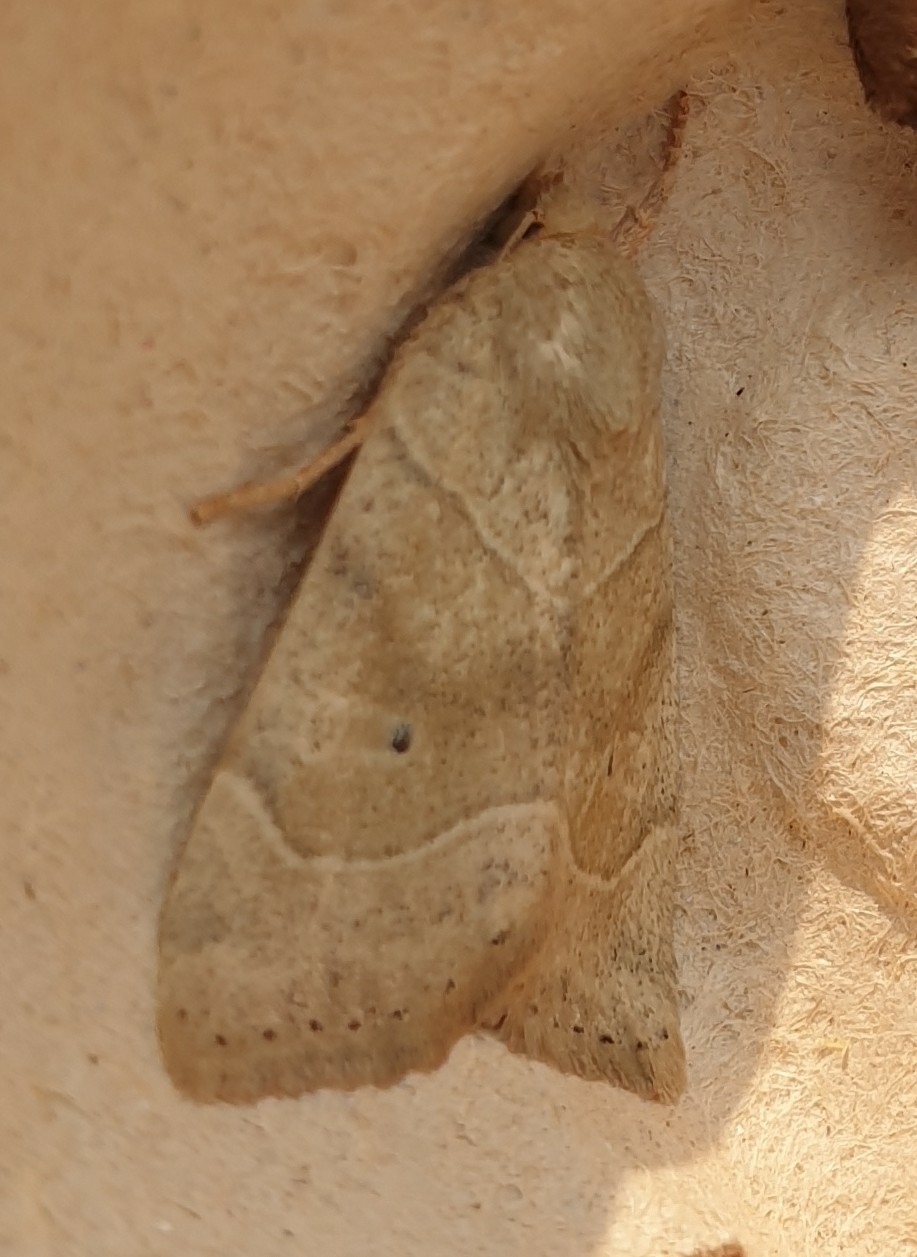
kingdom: Animalia
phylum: Arthropoda
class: Insecta
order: Lepidoptera
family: Noctuidae
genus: Cosmia
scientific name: Cosmia trapezina
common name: Dun-bar
